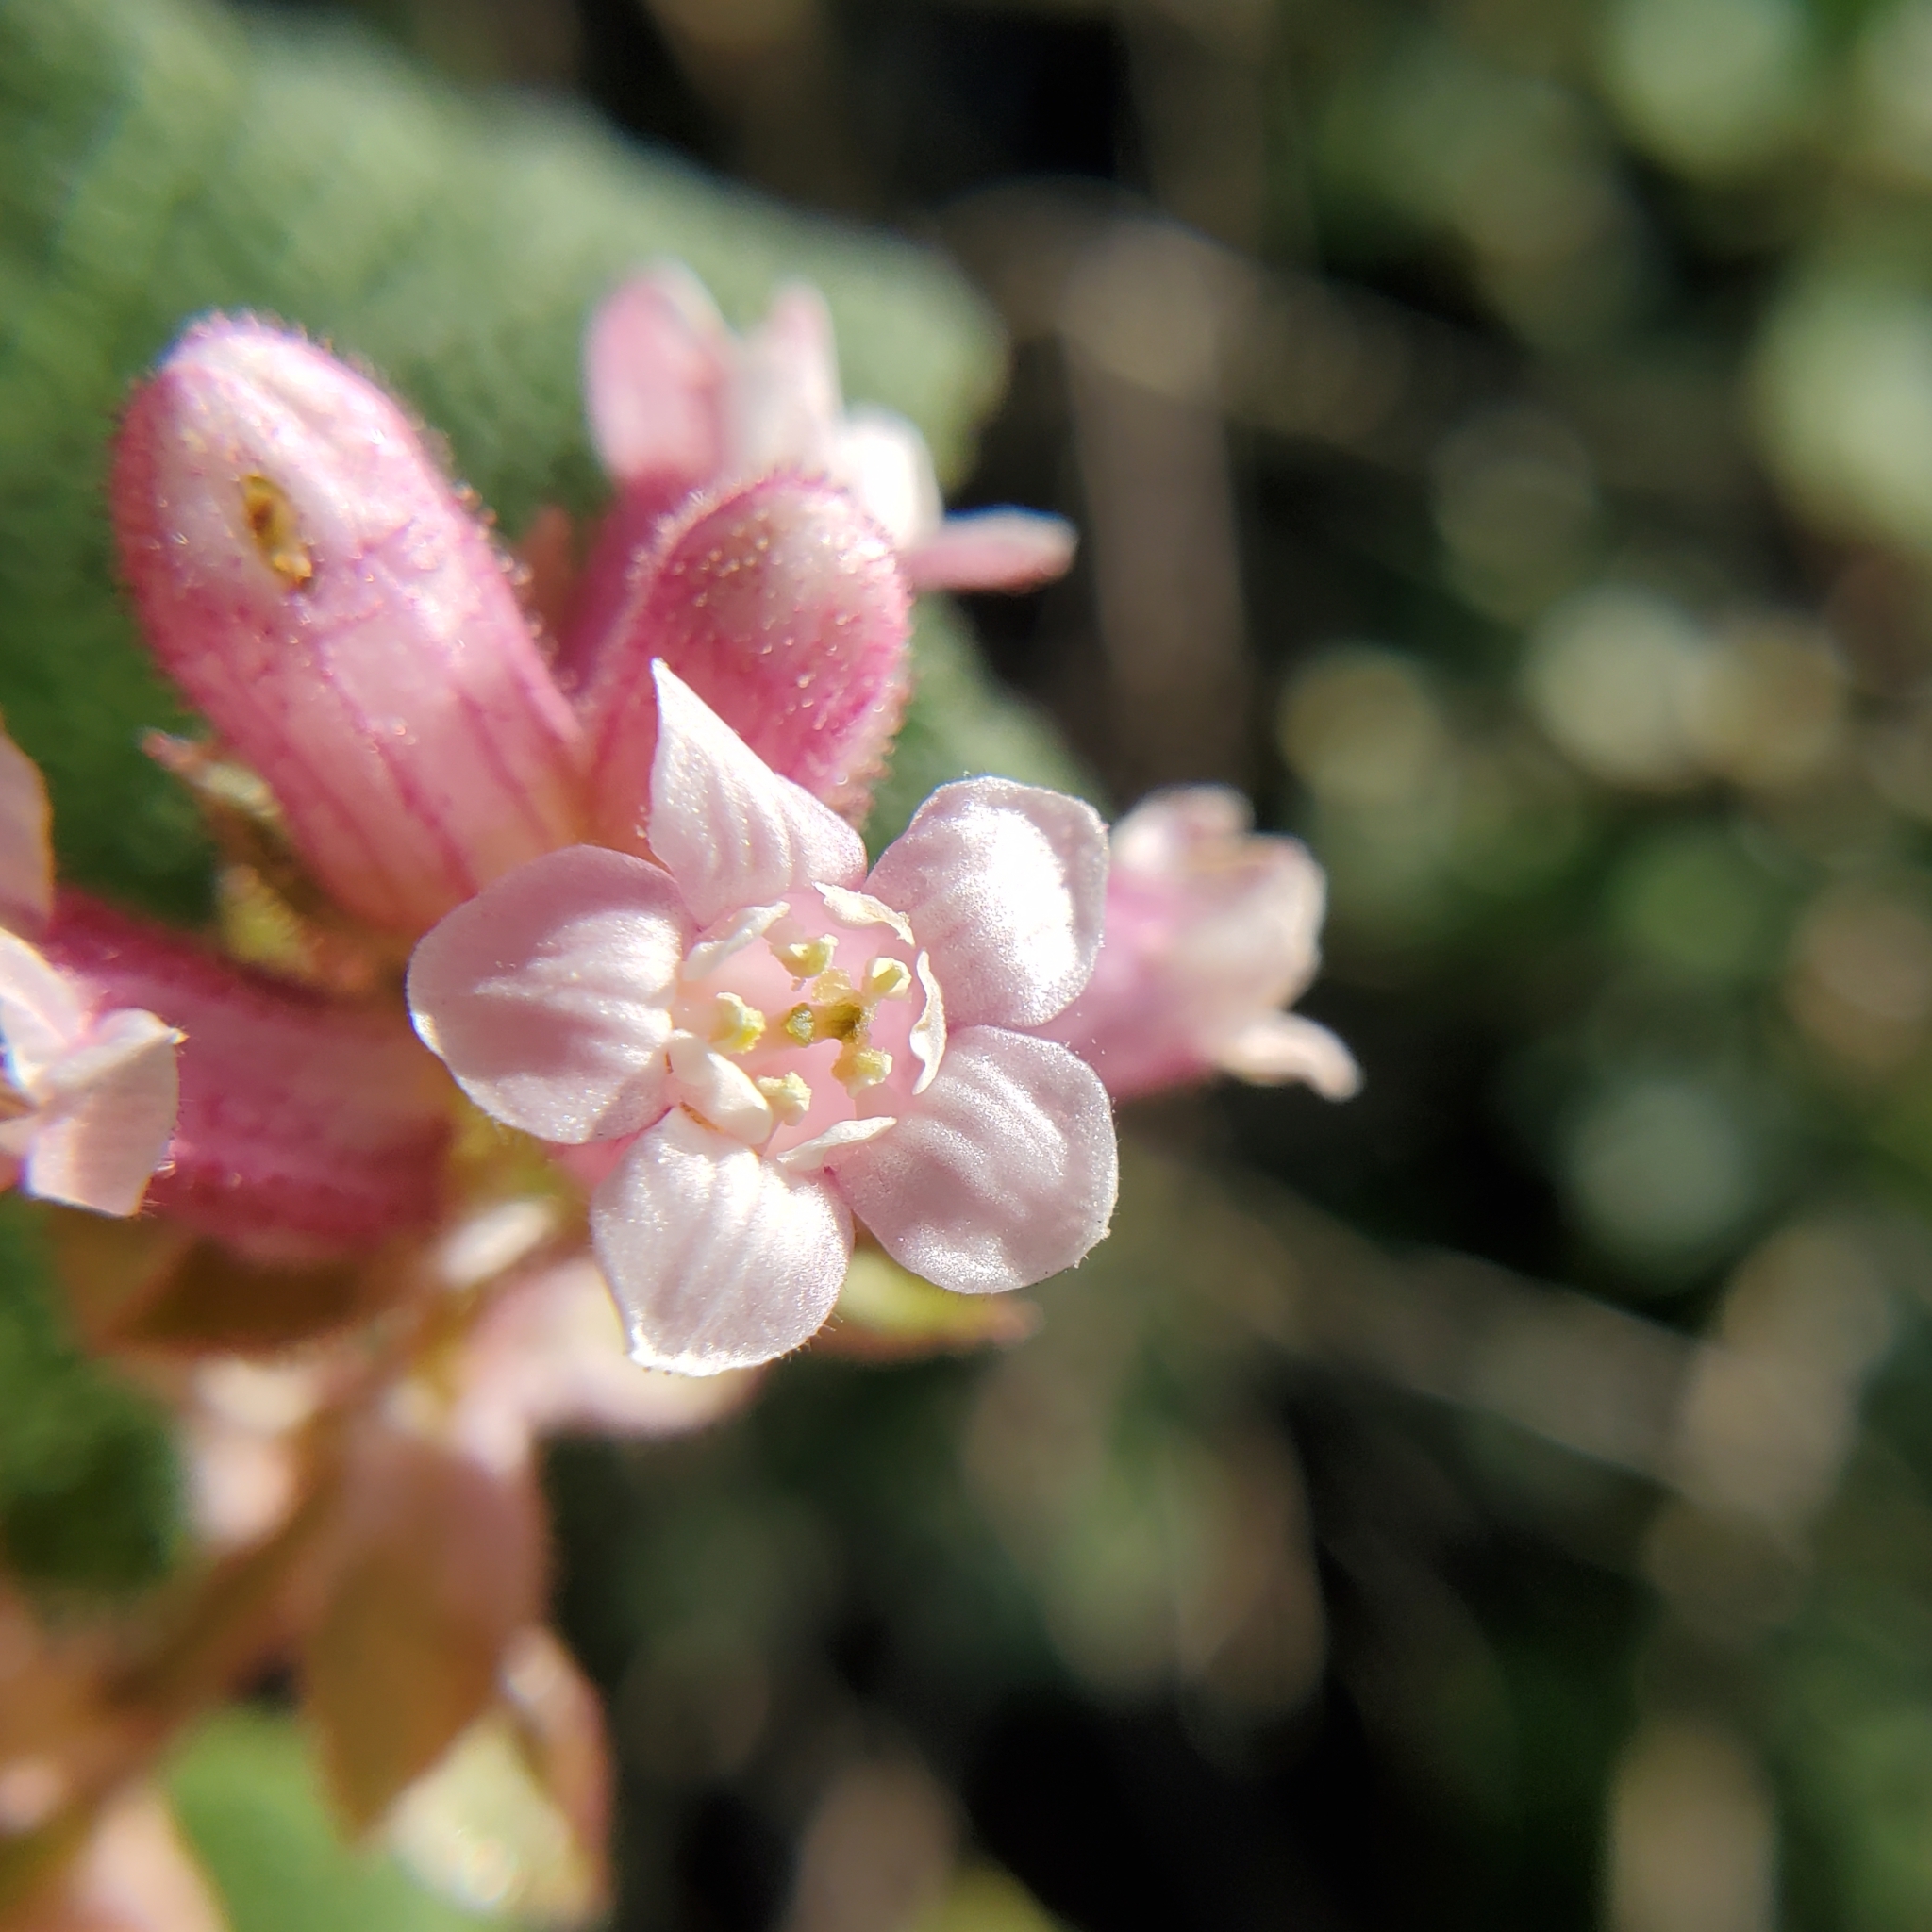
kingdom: Plantae
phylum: Tracheophyta
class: Magnoliopsida
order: Saxifragales
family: Grossulariaceae
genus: Ribes
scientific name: Ribes malvaceum
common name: Chaparral currant
